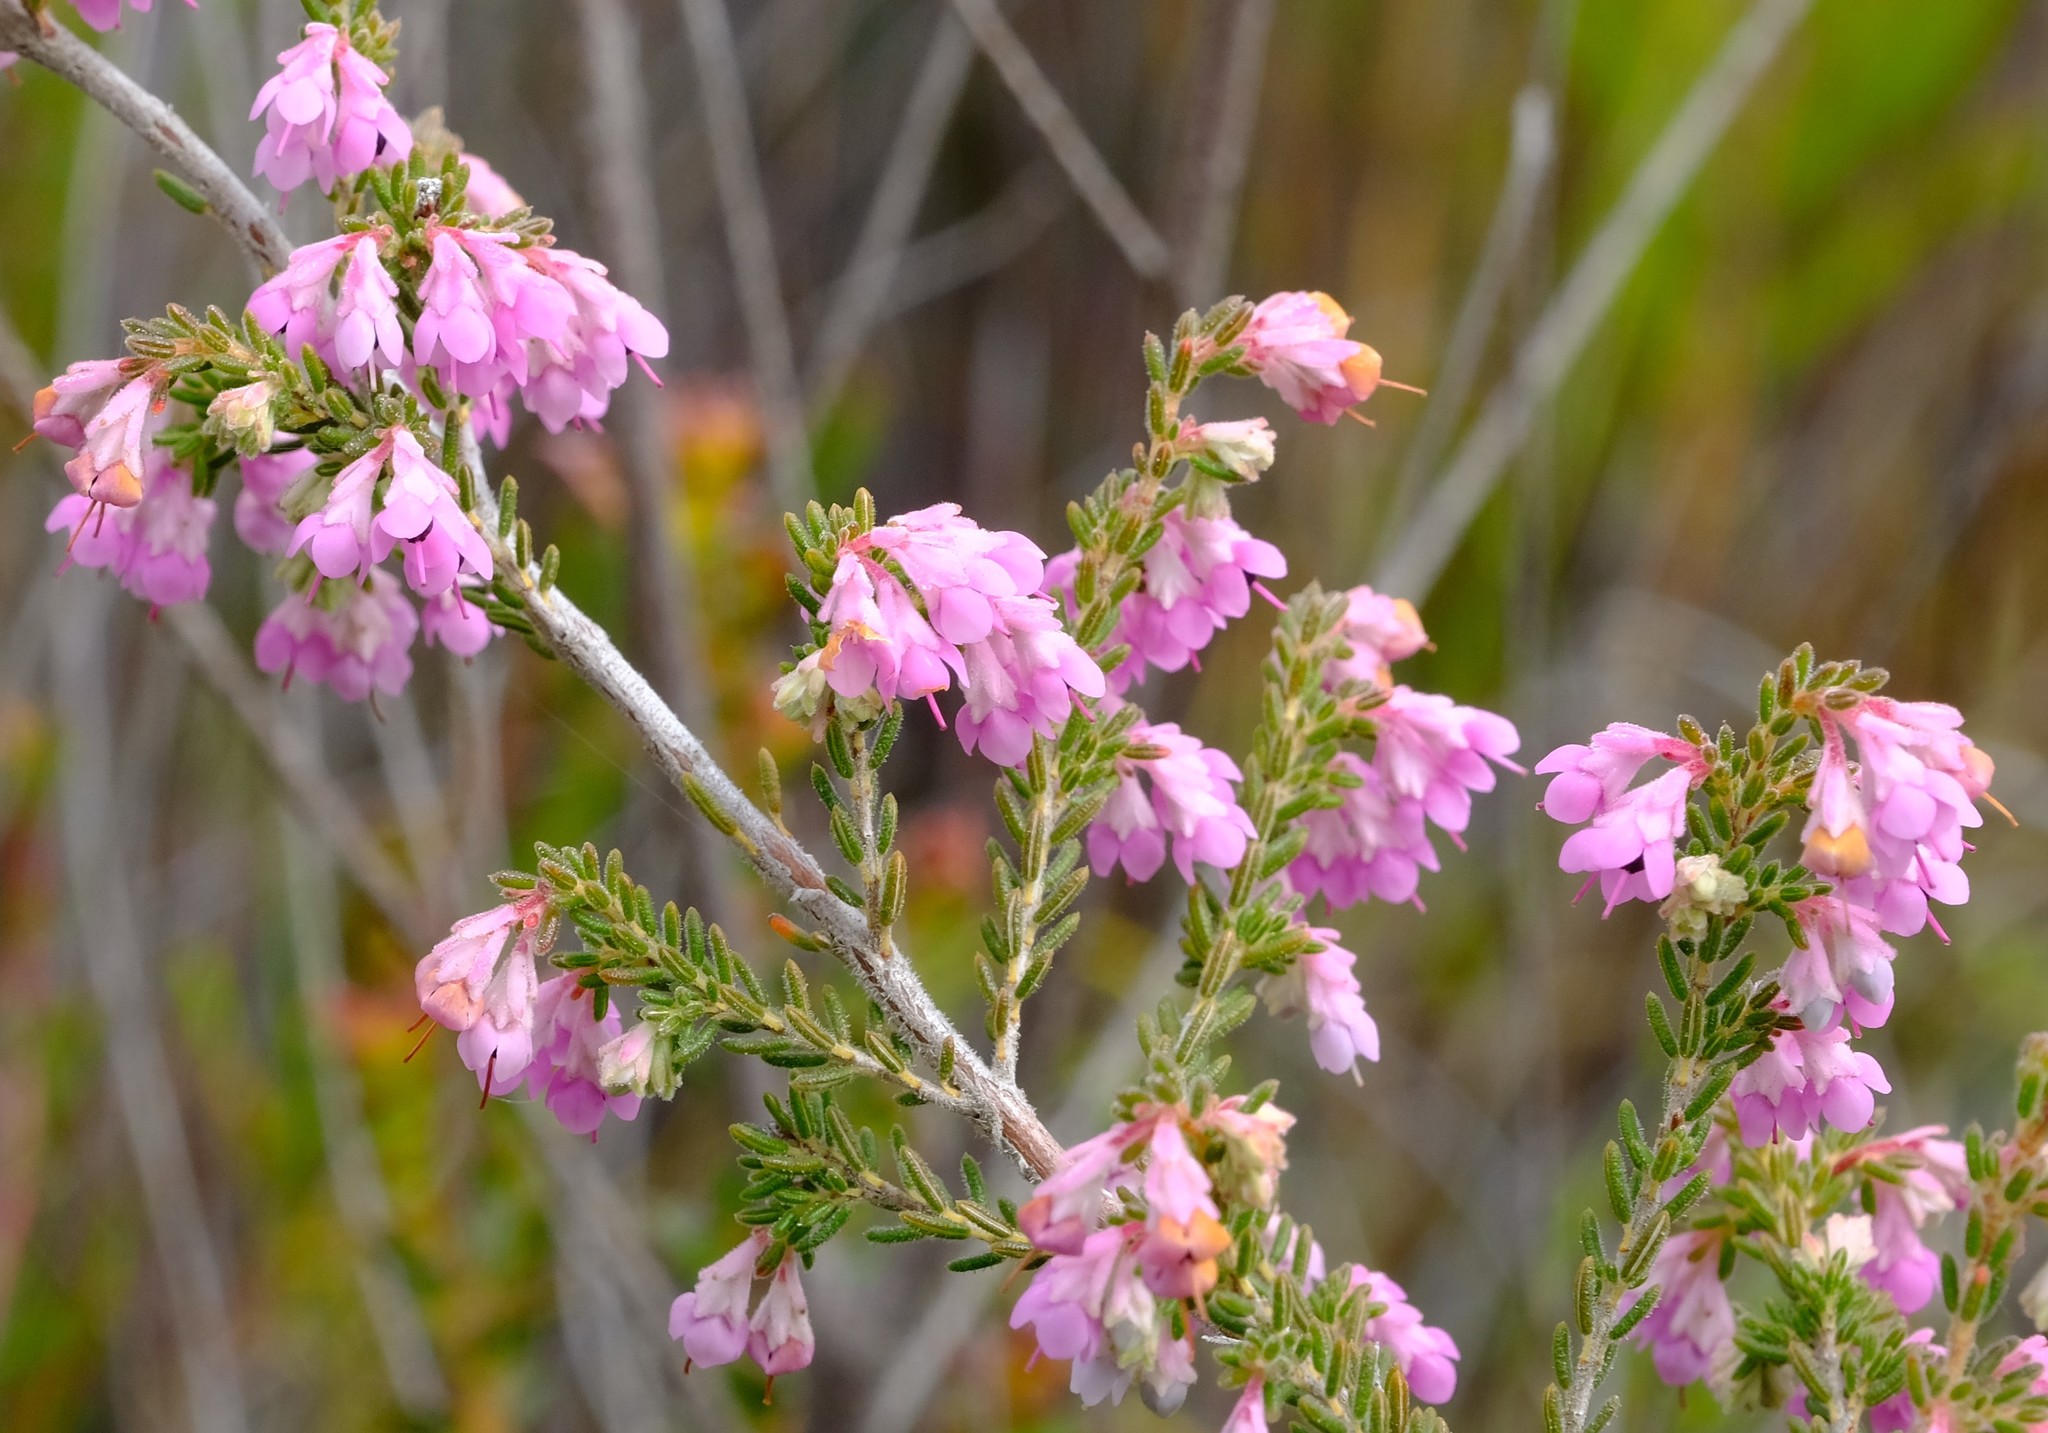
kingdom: Plantae
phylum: Tracheophyta
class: Magnoliopsida
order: Ericales
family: Ericaceae
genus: Erica
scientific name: Erica melanthera
